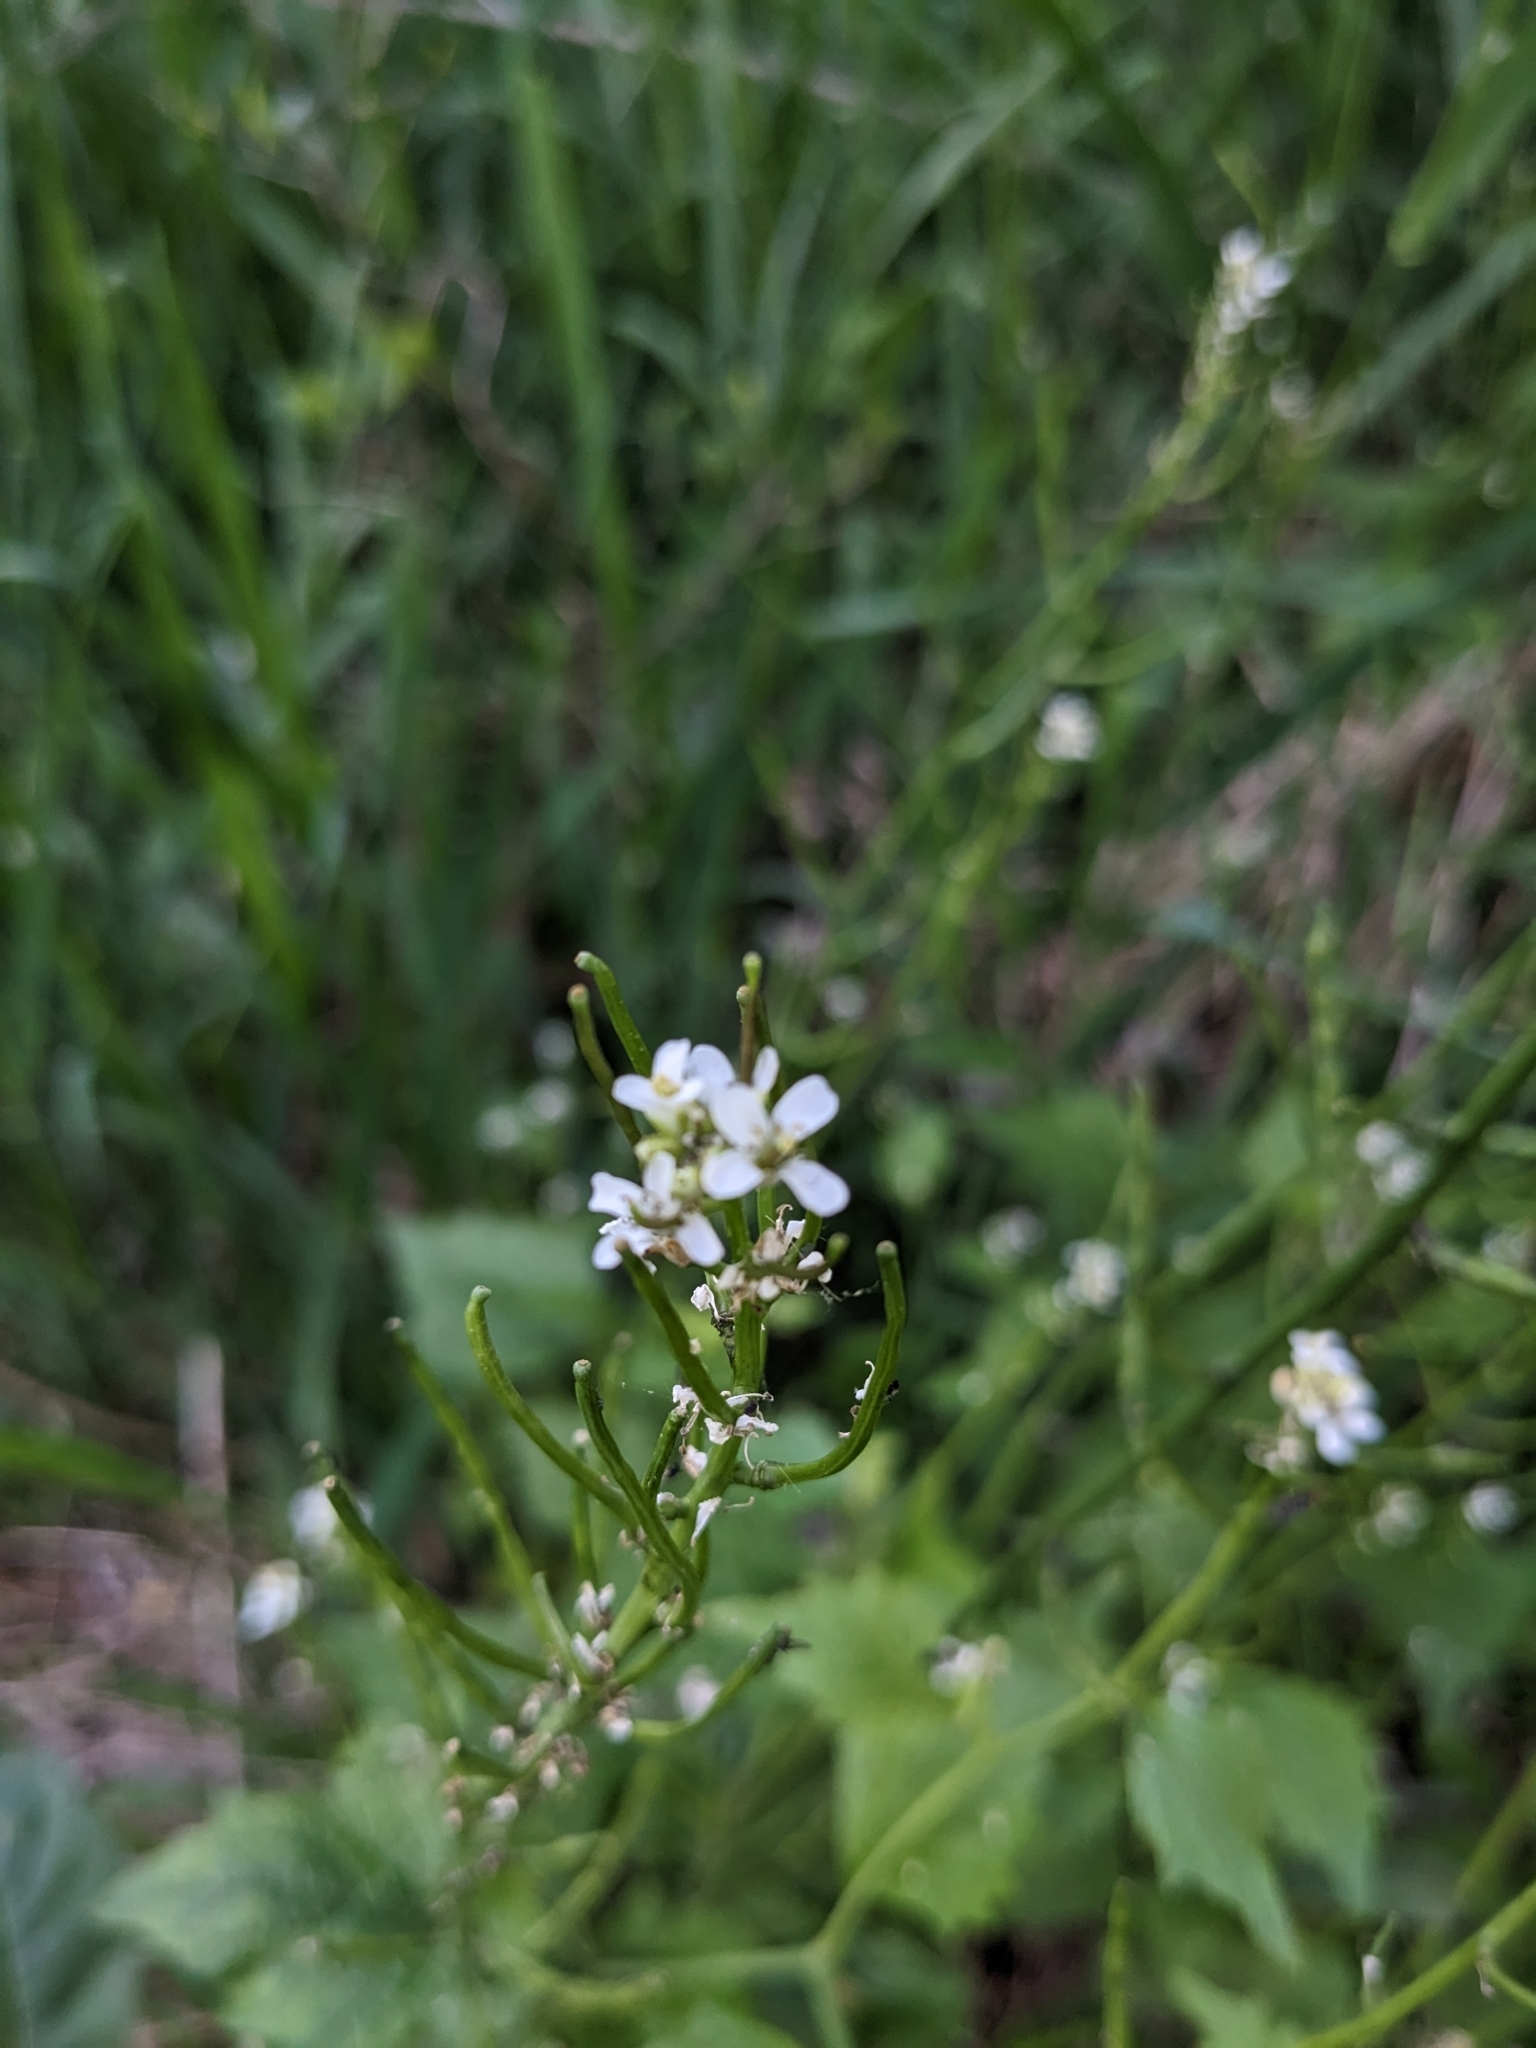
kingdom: Plantae
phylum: Tracheophyta
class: Magnoliopsida
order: Brassicales
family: Brassicaceae
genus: Alliaria
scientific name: Alliaria petiolata
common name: Garlic mustard
